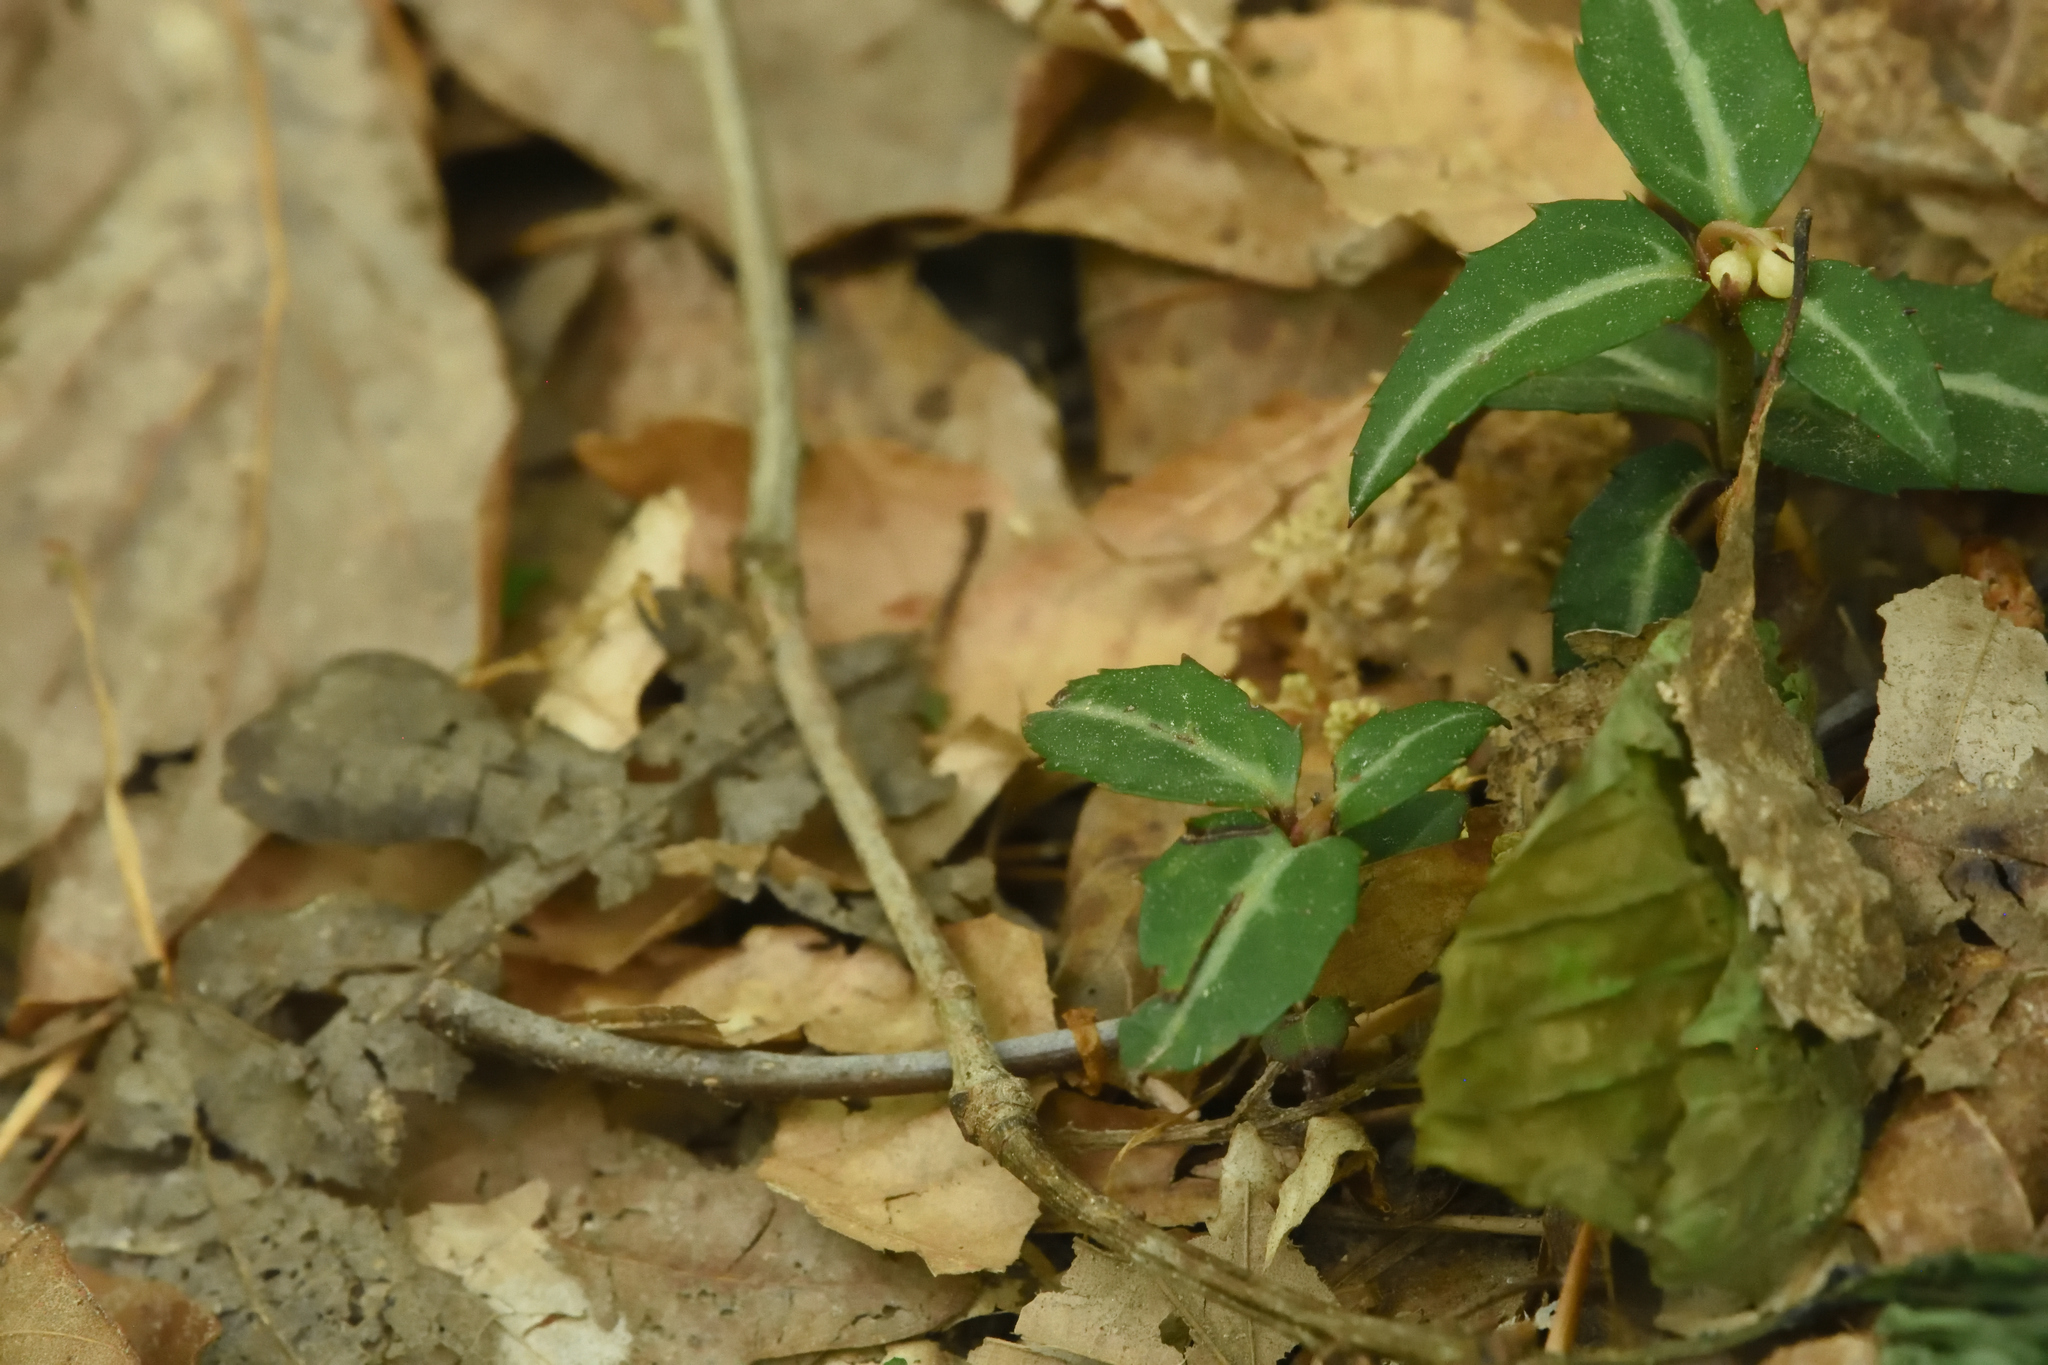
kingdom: Plantae
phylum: Tracheophyta
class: Magnoliopsida
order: Ericales
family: Ericaceae
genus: Chimaphila
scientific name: Chimaphila maculata
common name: Spotted pipsissewa
